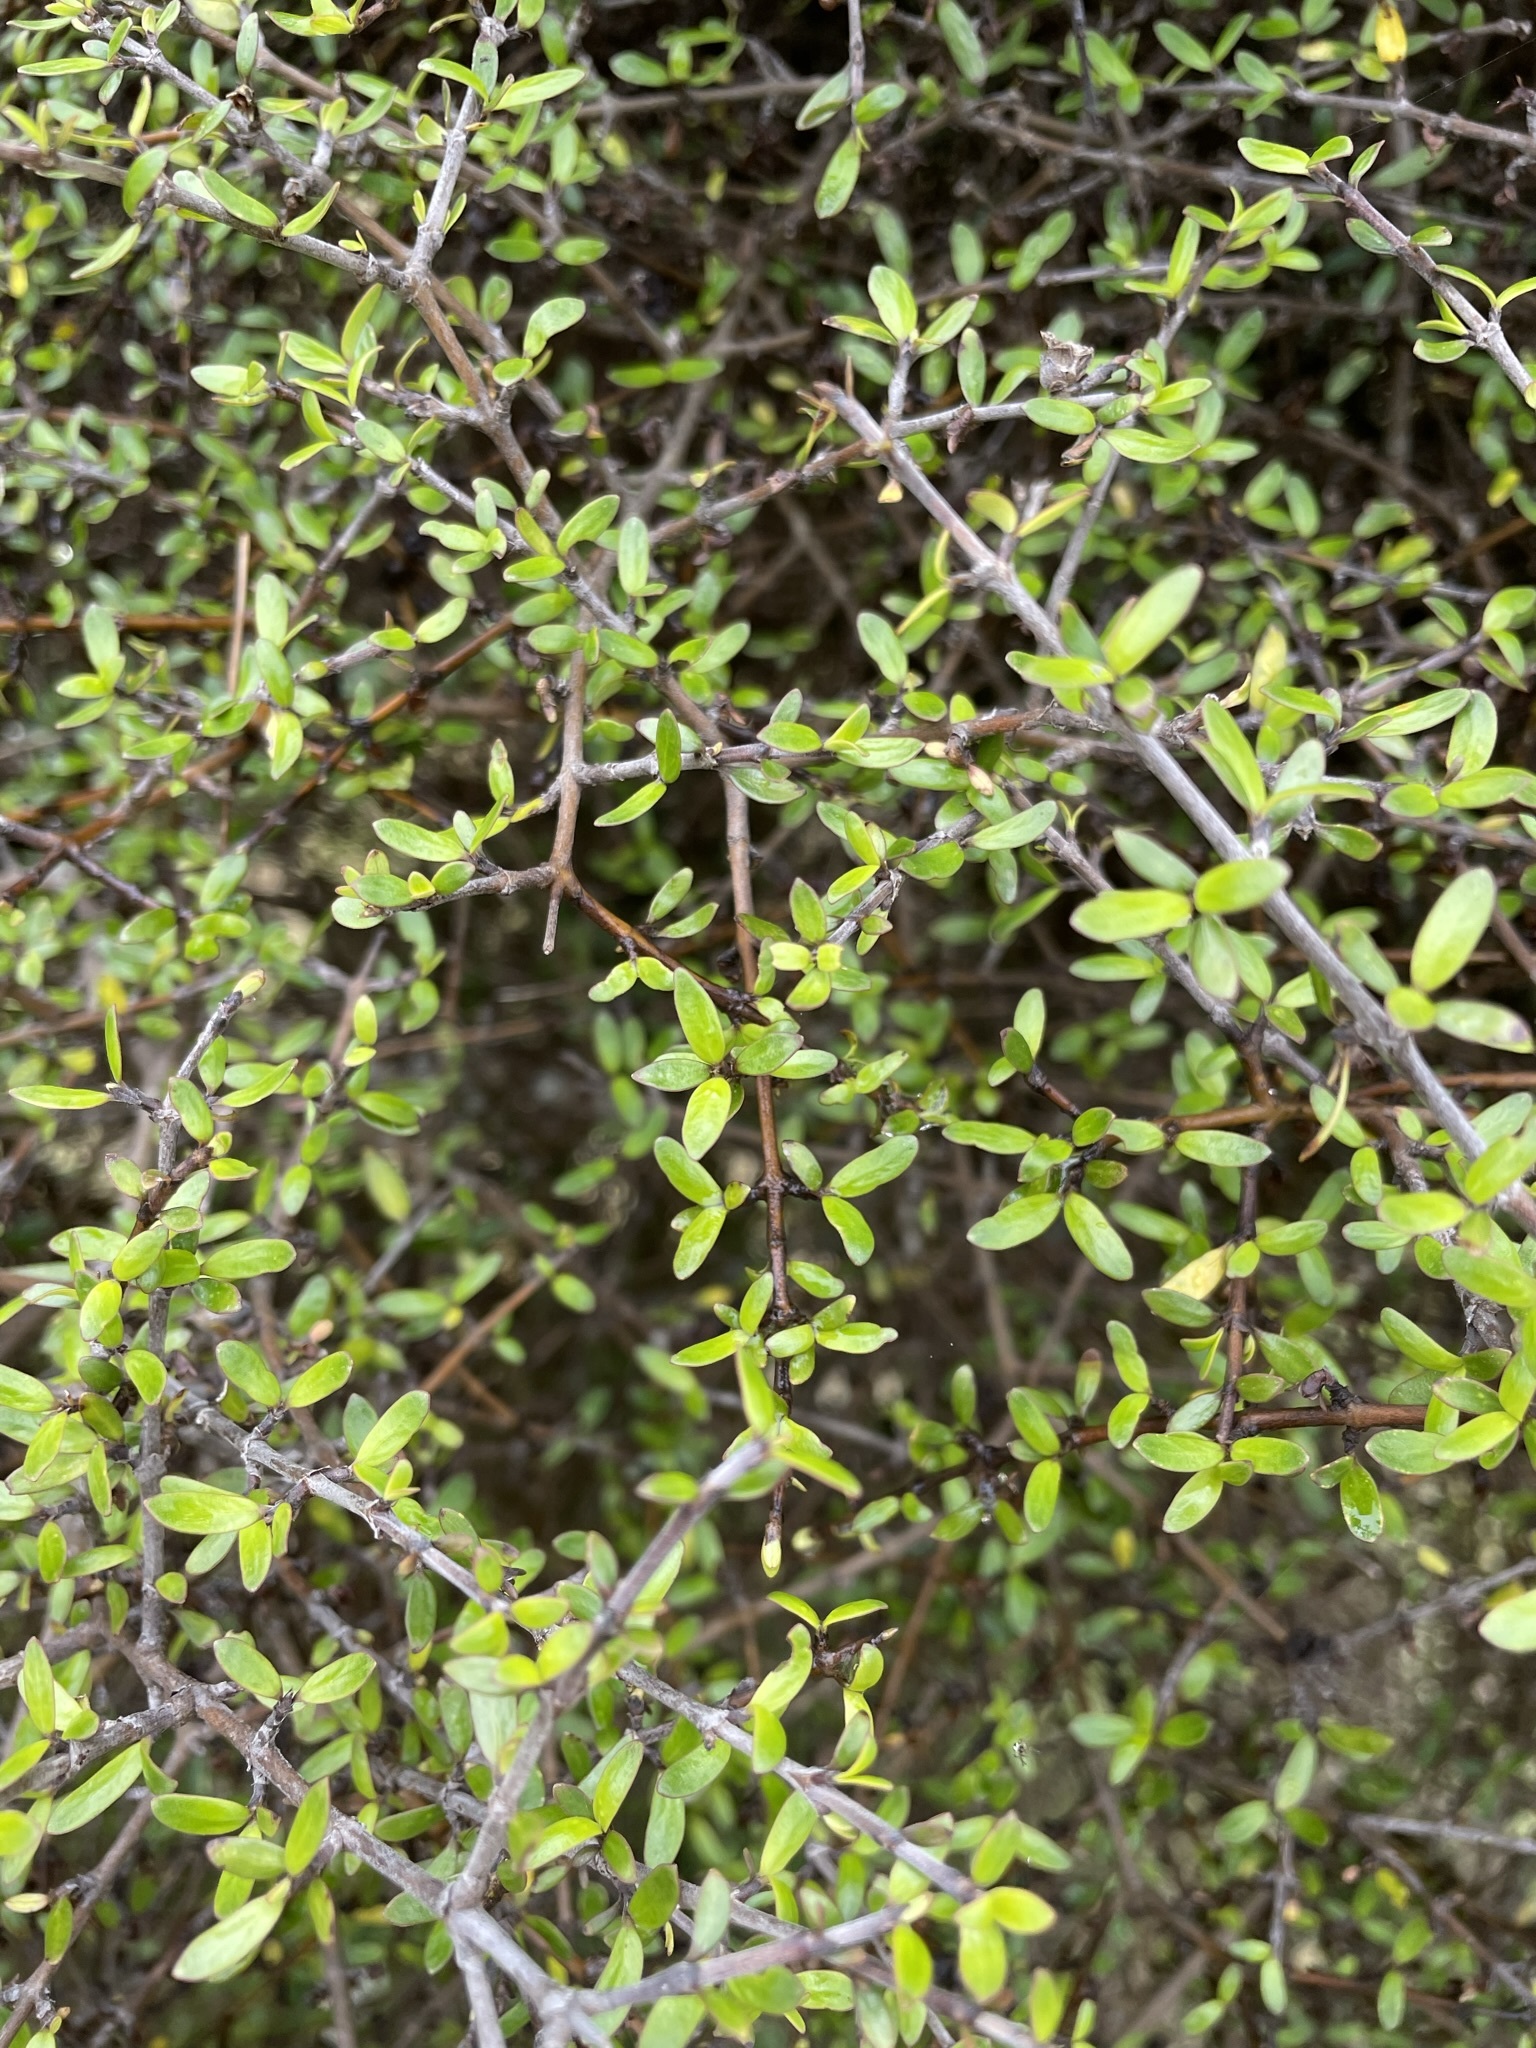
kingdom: Plantae
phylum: Tracheophyta
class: Magnoliopsida
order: Gentianales
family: Rubiaceae
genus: Coprosma
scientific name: Coprosma propinqua
